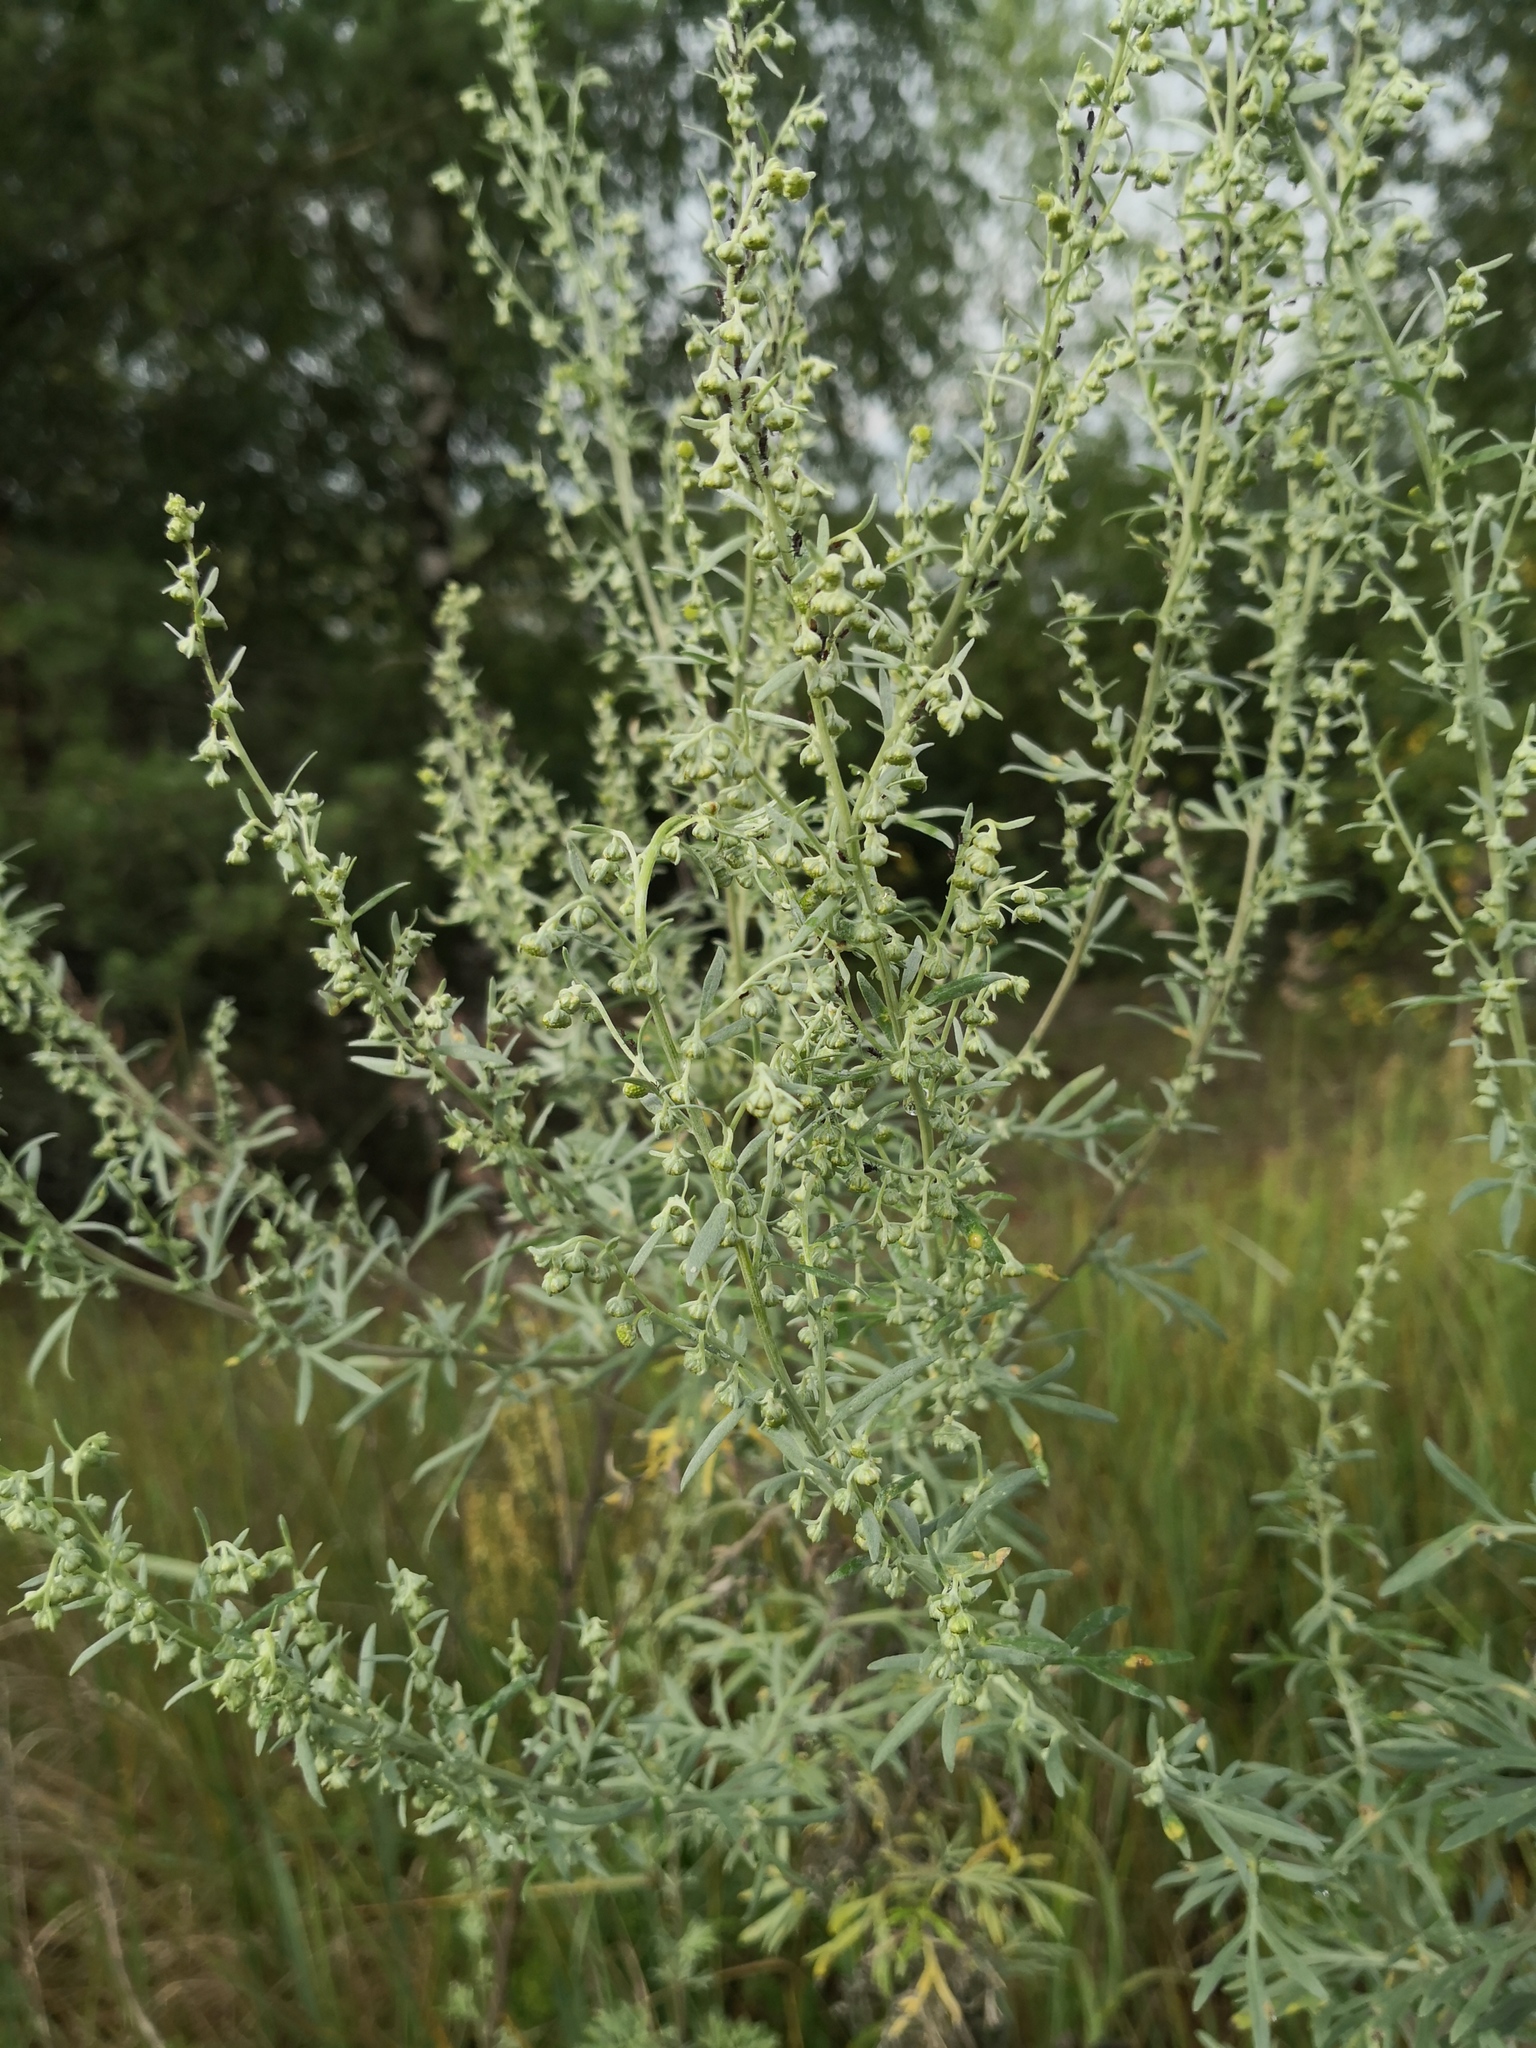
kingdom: Plantae
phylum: Tracheophyta
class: Magnoliopsida
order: Asterales
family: Asteraceae
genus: Artemisia
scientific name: Artemisia absinthium
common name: Wormwood
